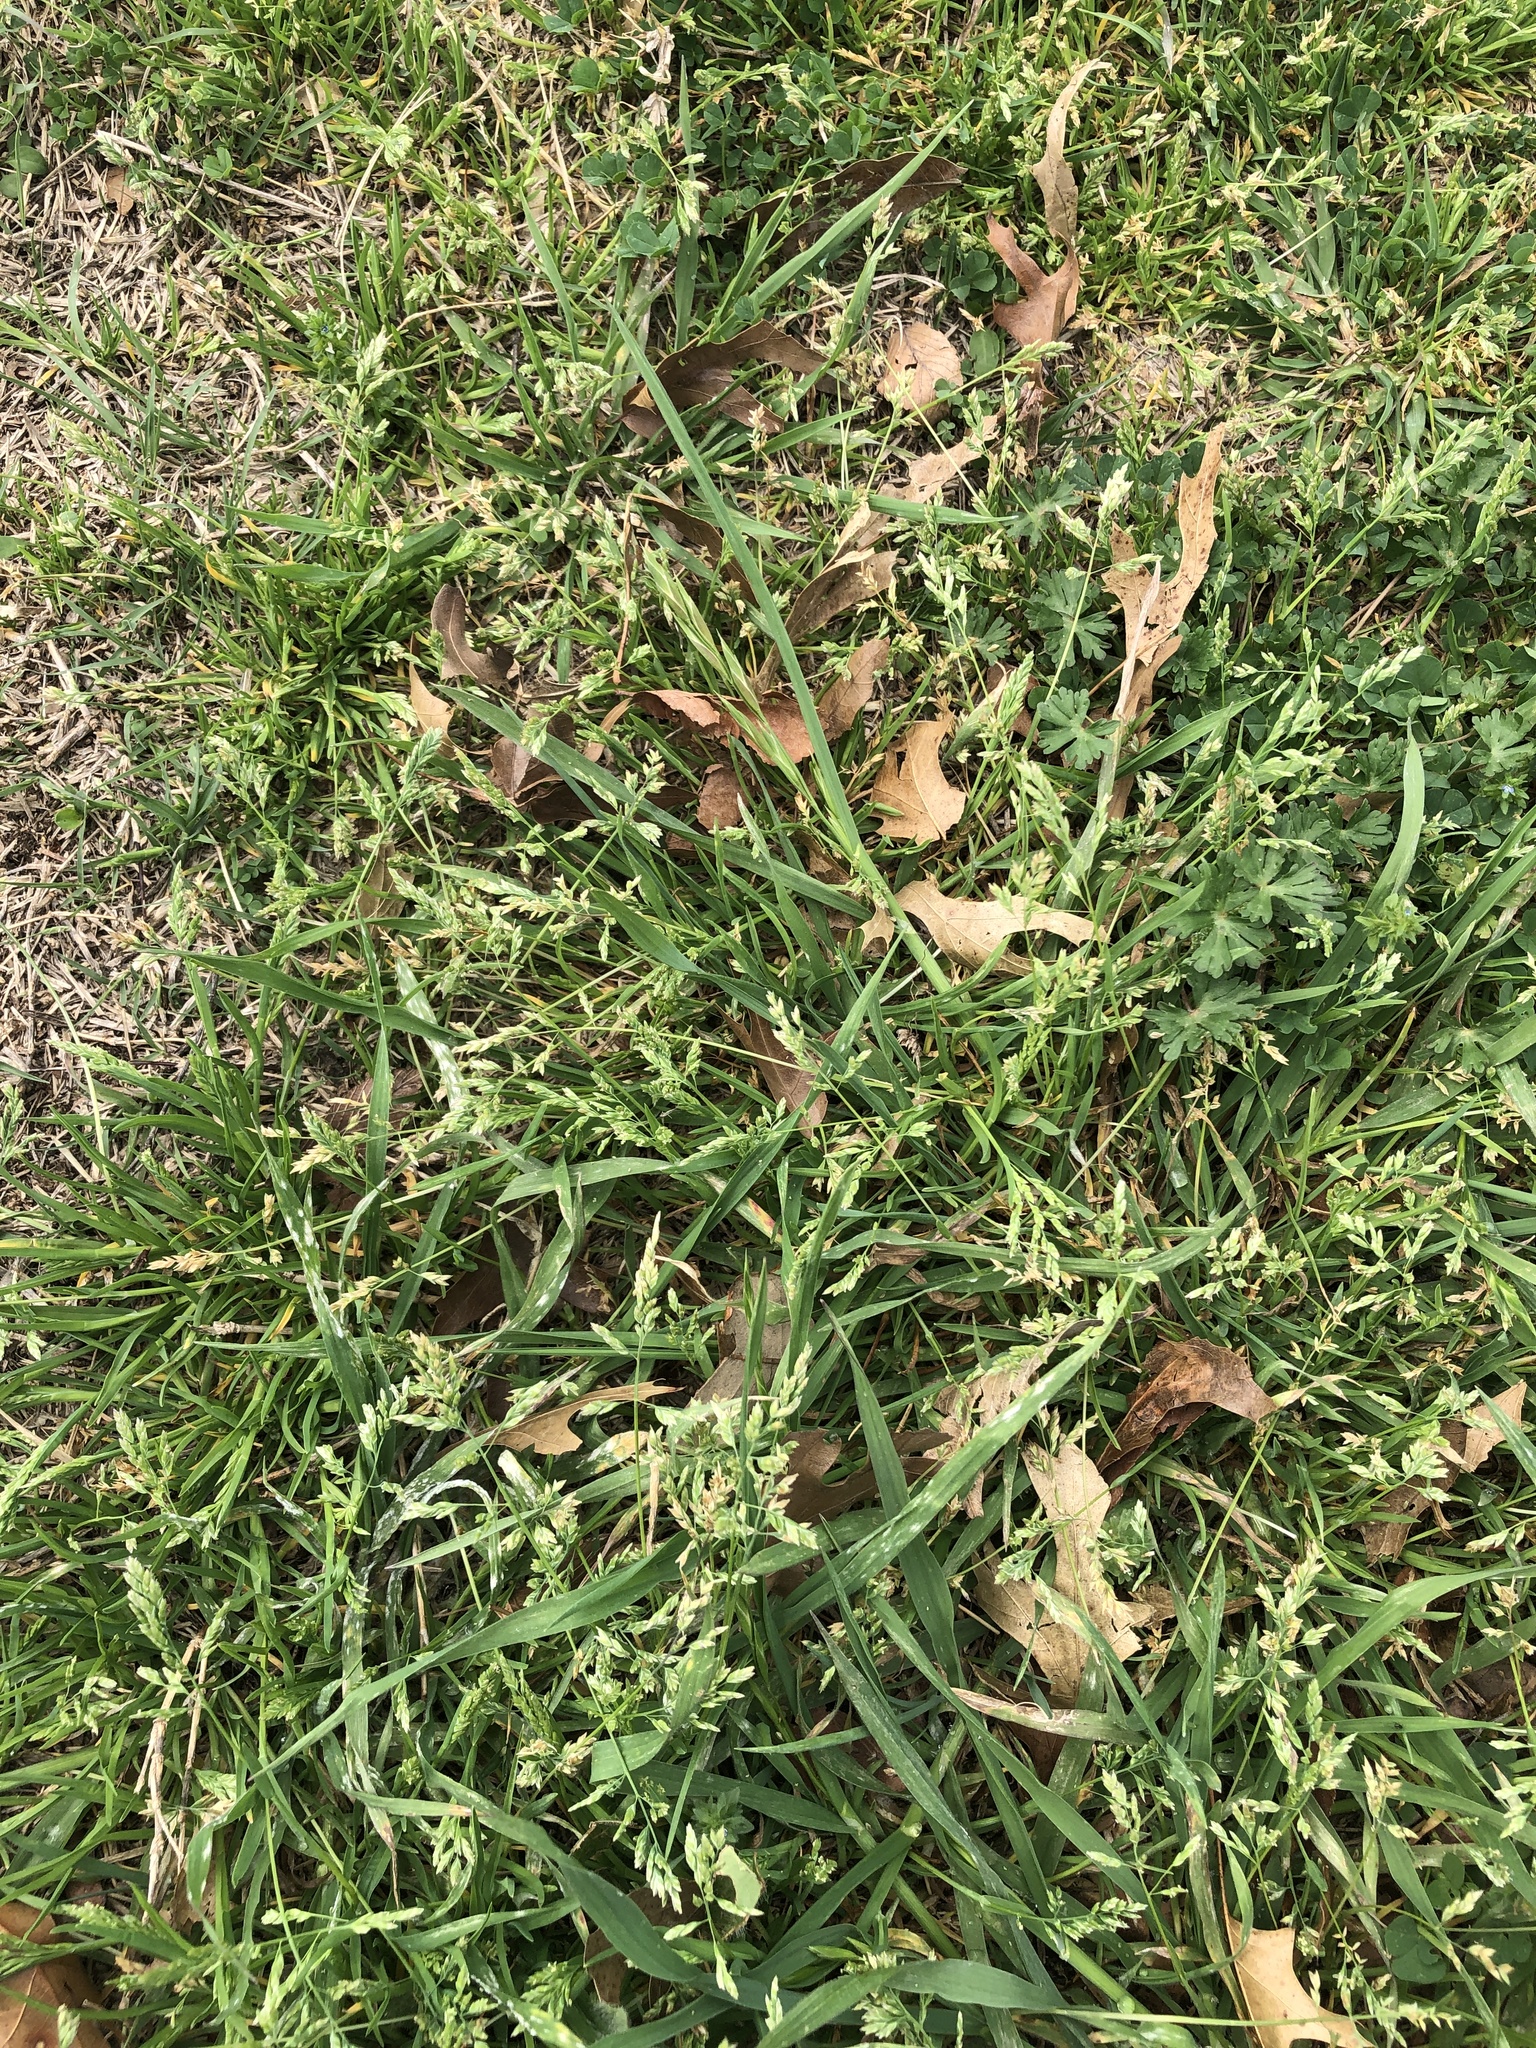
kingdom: Plantae
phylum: Tracheophyta
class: Liliopsida
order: Poales
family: Poaceae
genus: Poa
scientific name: Poa annua
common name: Annual bluegrass
